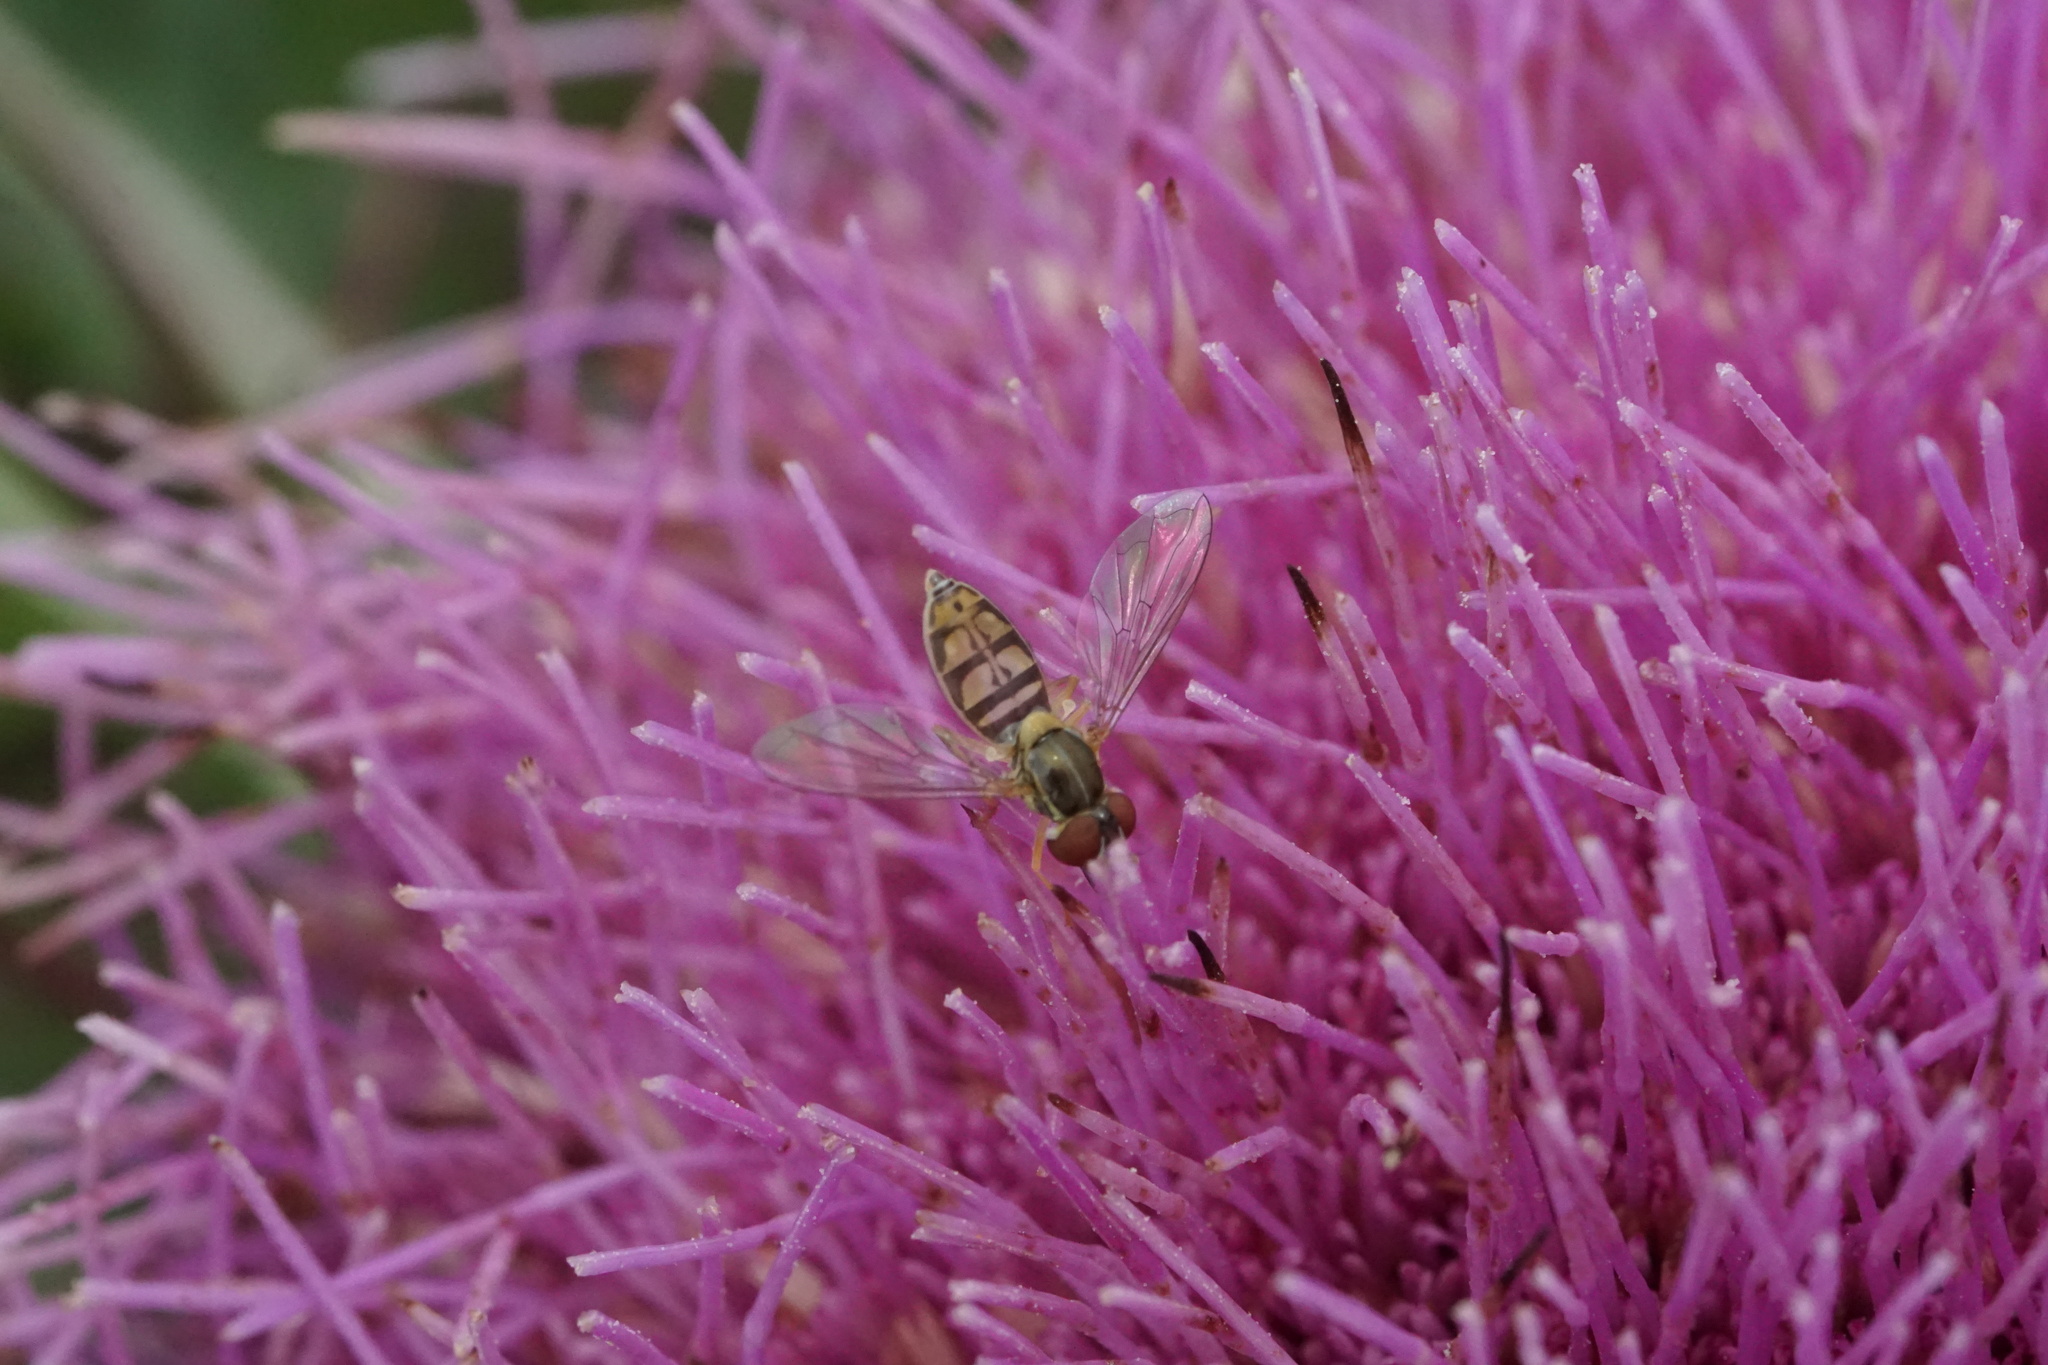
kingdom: Animalia
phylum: Arthropoda
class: Insecta
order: Diptera
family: Syrphidae
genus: Toxomerus
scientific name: Toxomerus marginatus
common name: Syrphid fly
